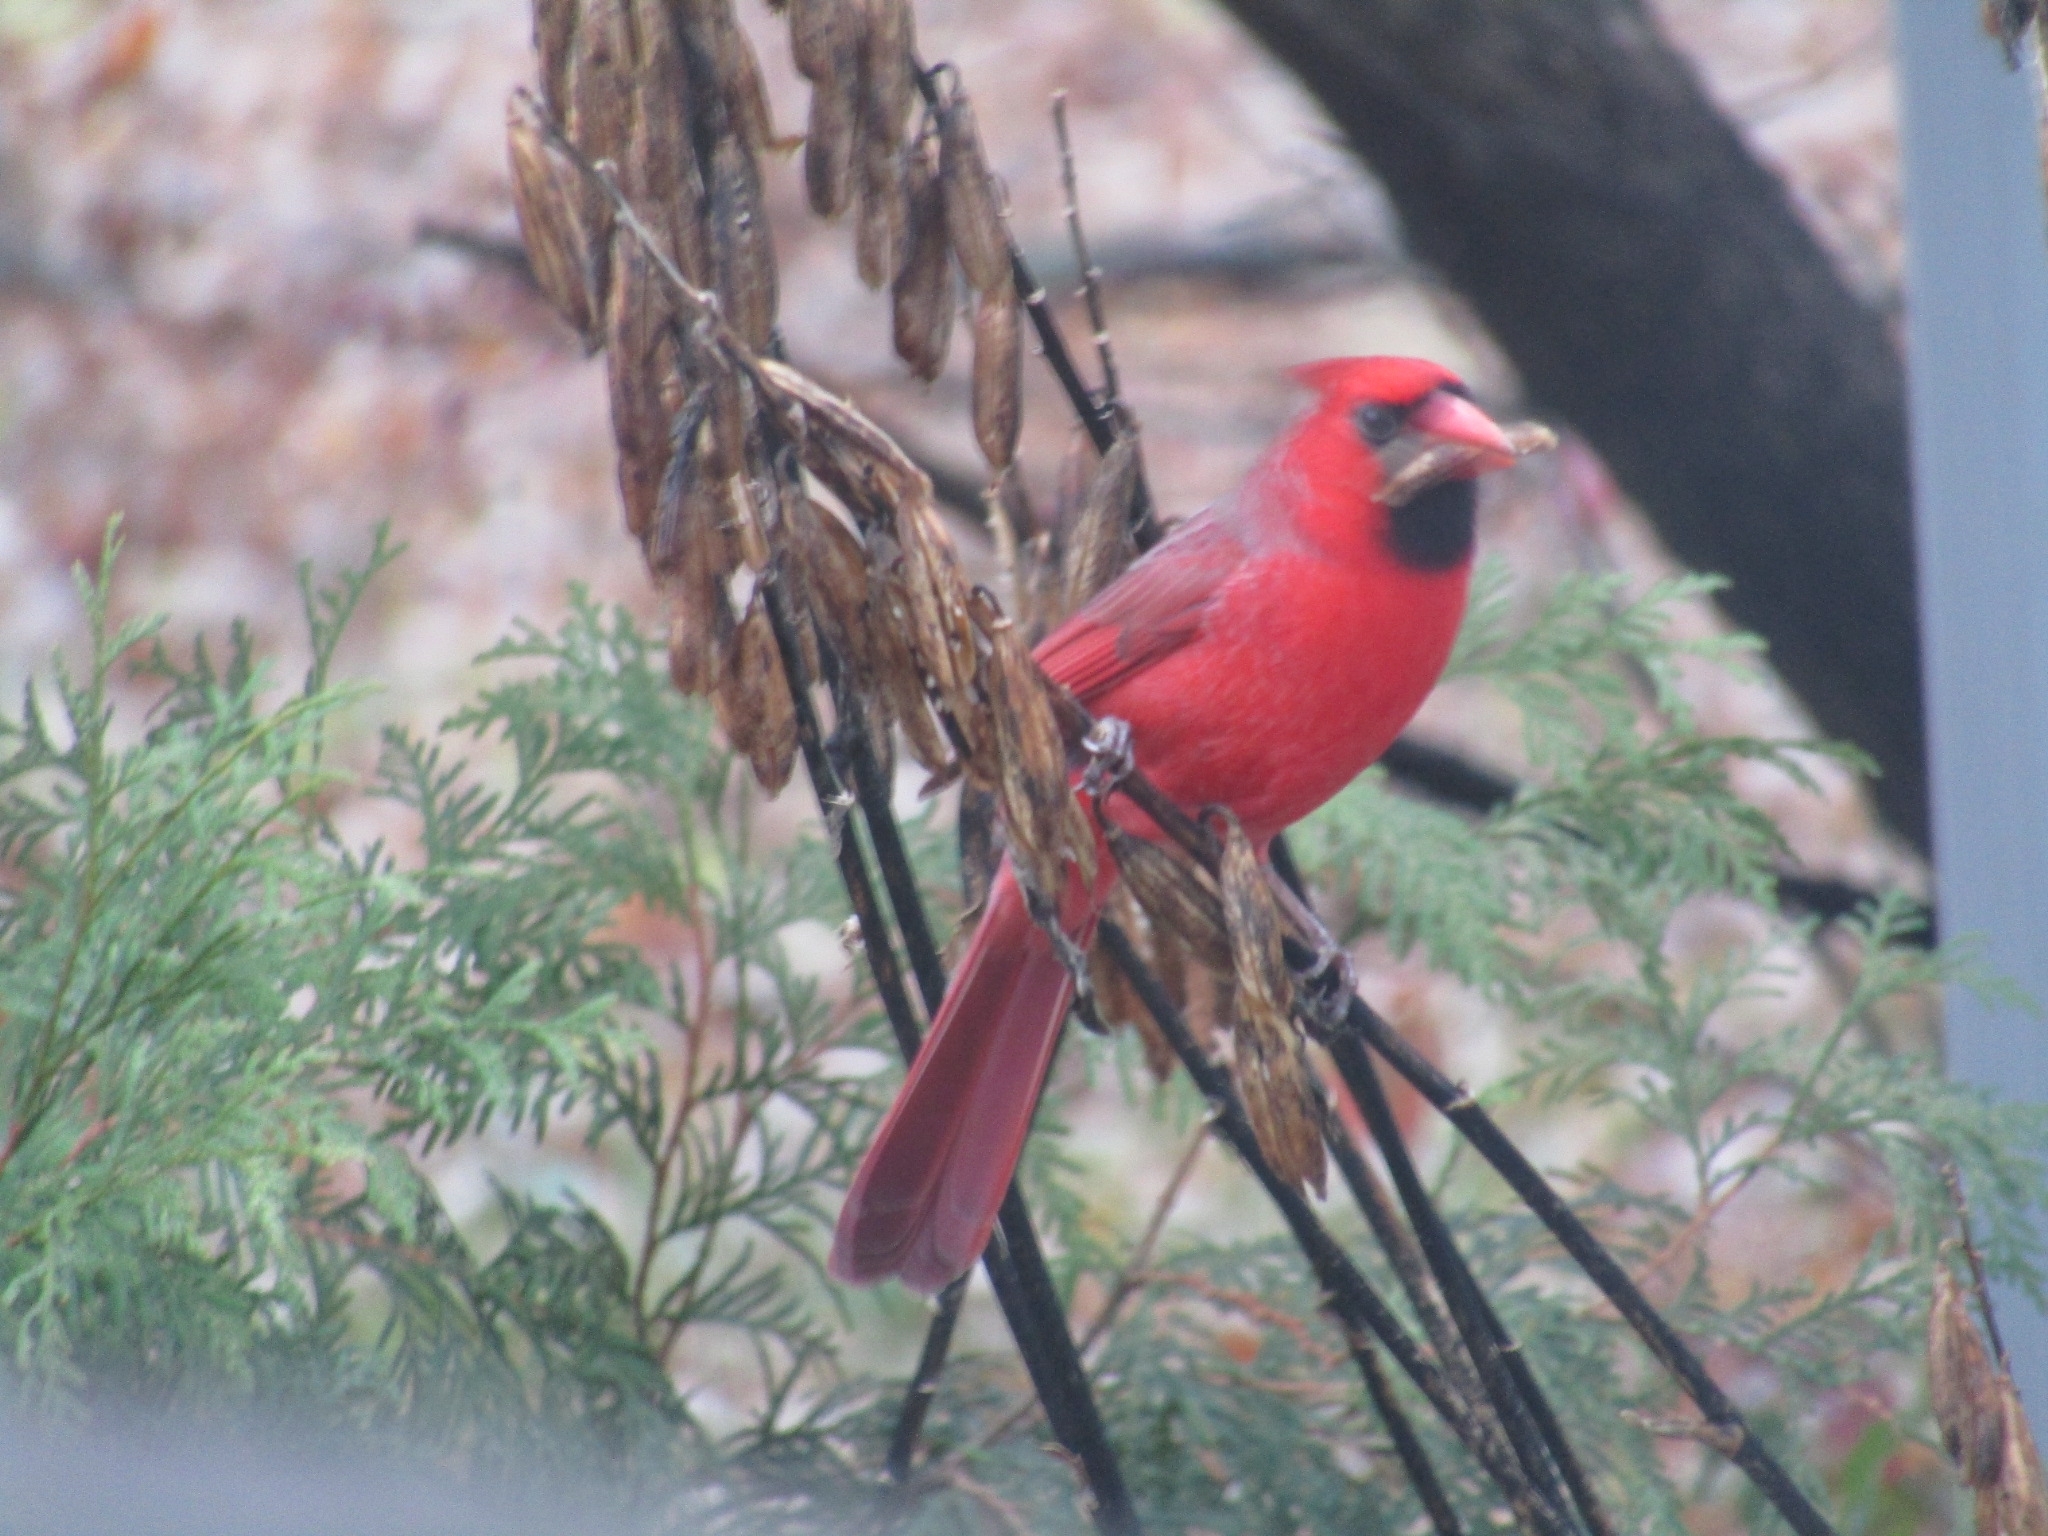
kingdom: Animalia
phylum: Chordata
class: Aves
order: Passeriformes
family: Cardinalidae
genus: Cardinalis
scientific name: Cardinalis cardinalis
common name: Northern cardinal
